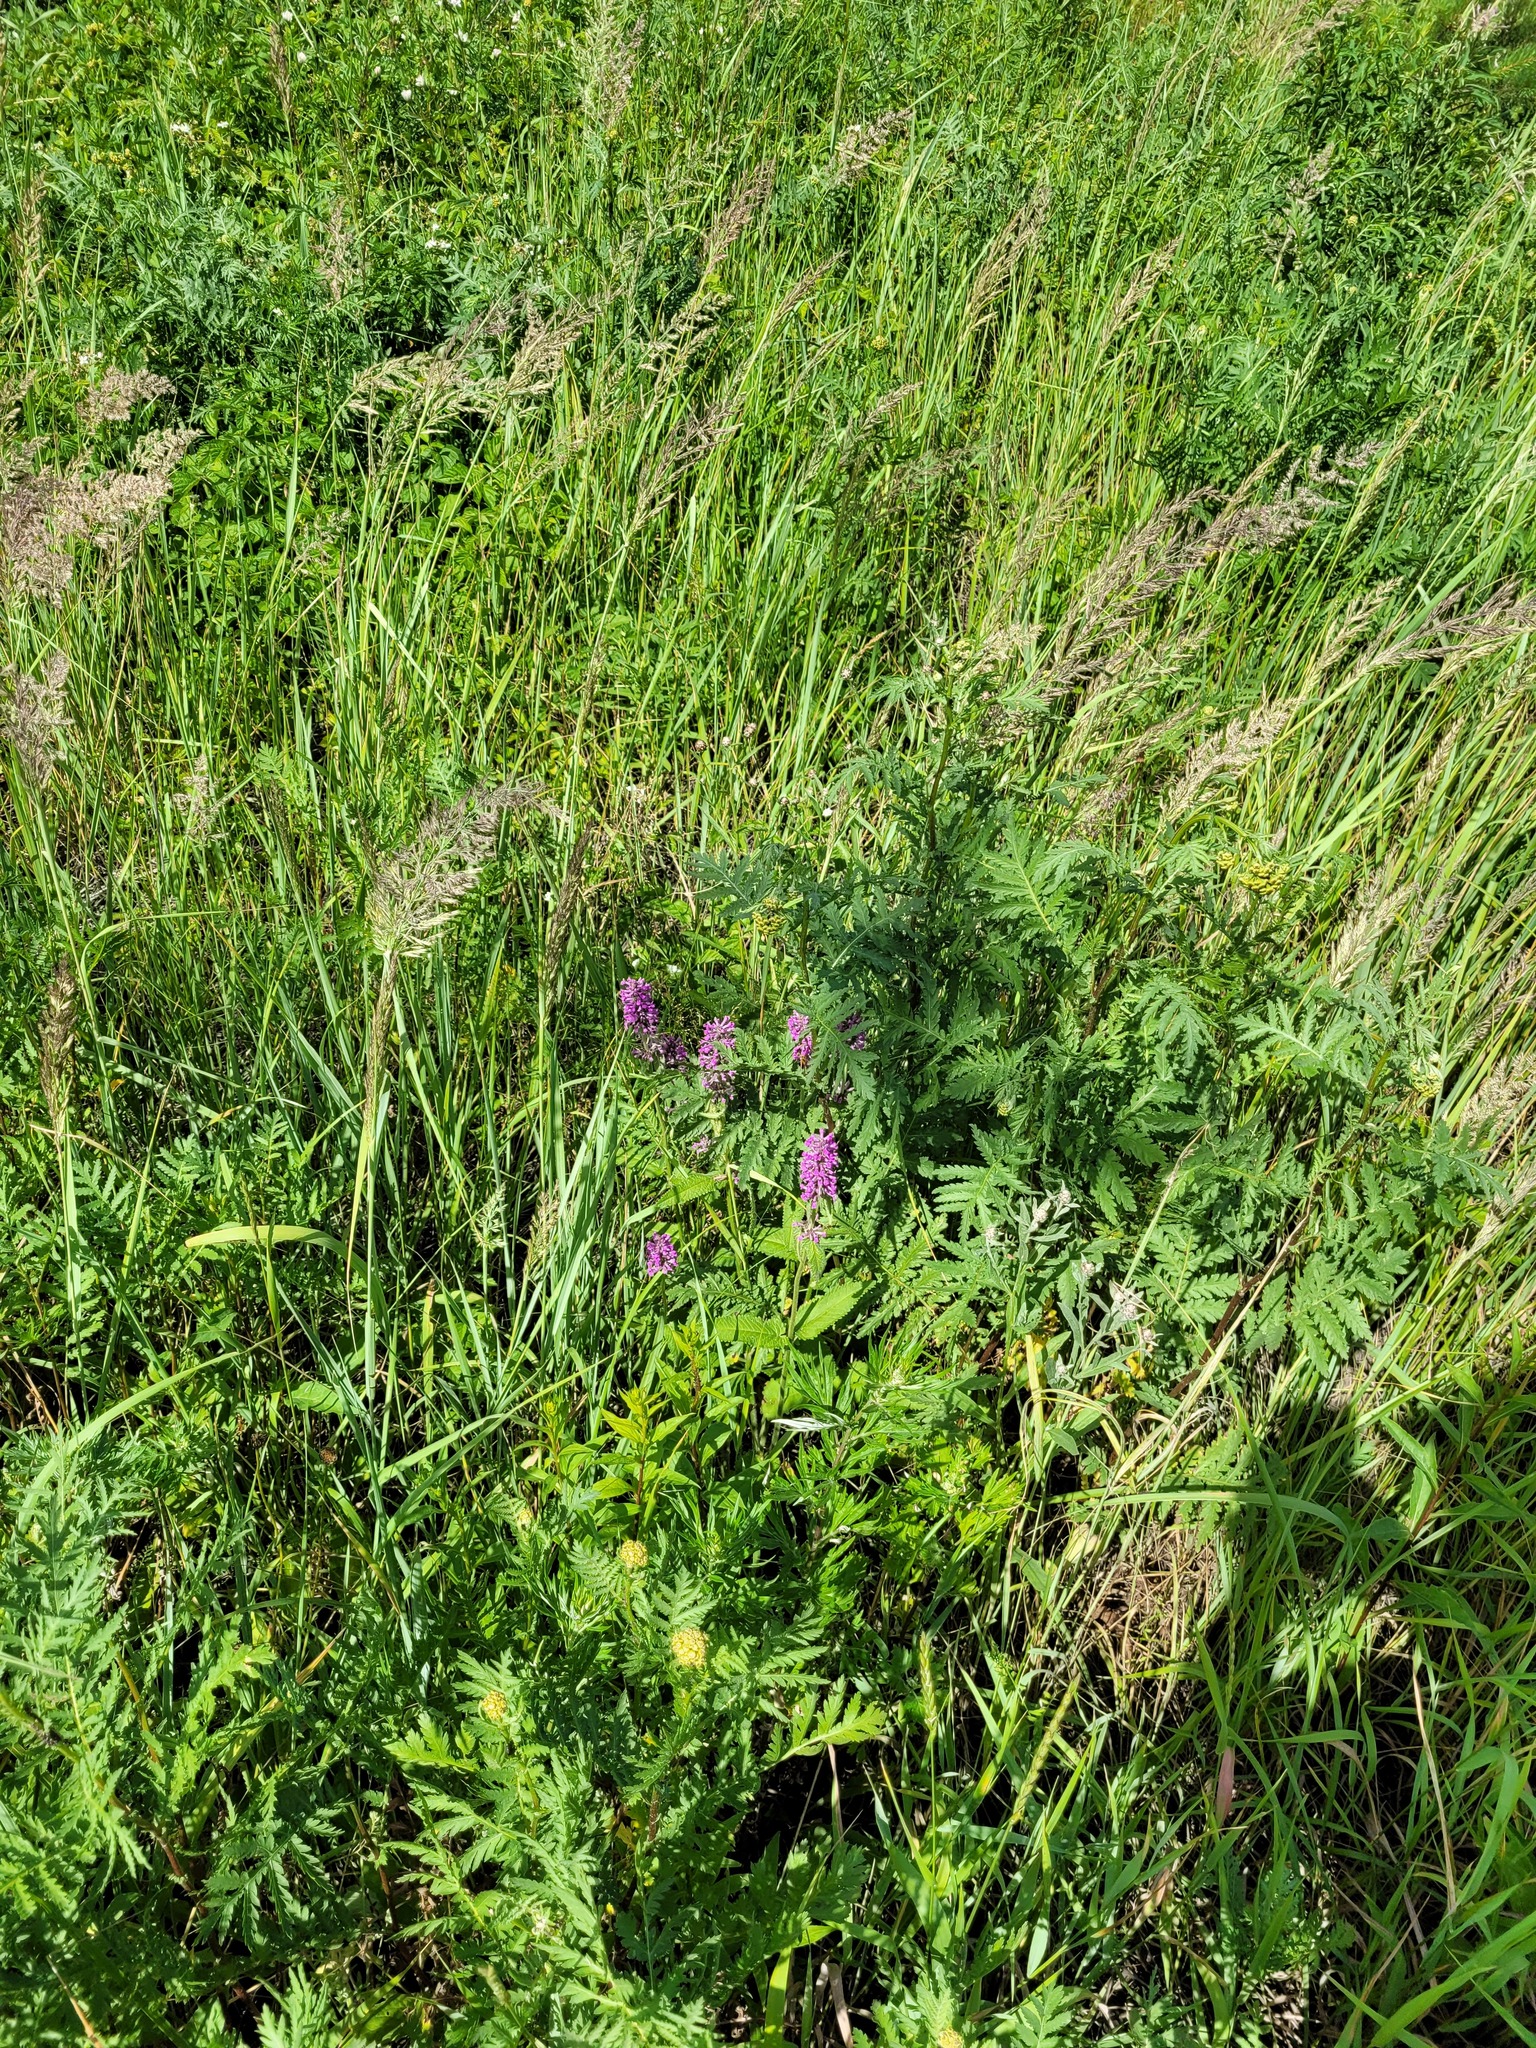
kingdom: Plantae
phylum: Tracheophyta
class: Magnoliopsida
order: Lamiales
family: Lamiaceae
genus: Betonica
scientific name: Betonica officinalis
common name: Bishop's-wort
